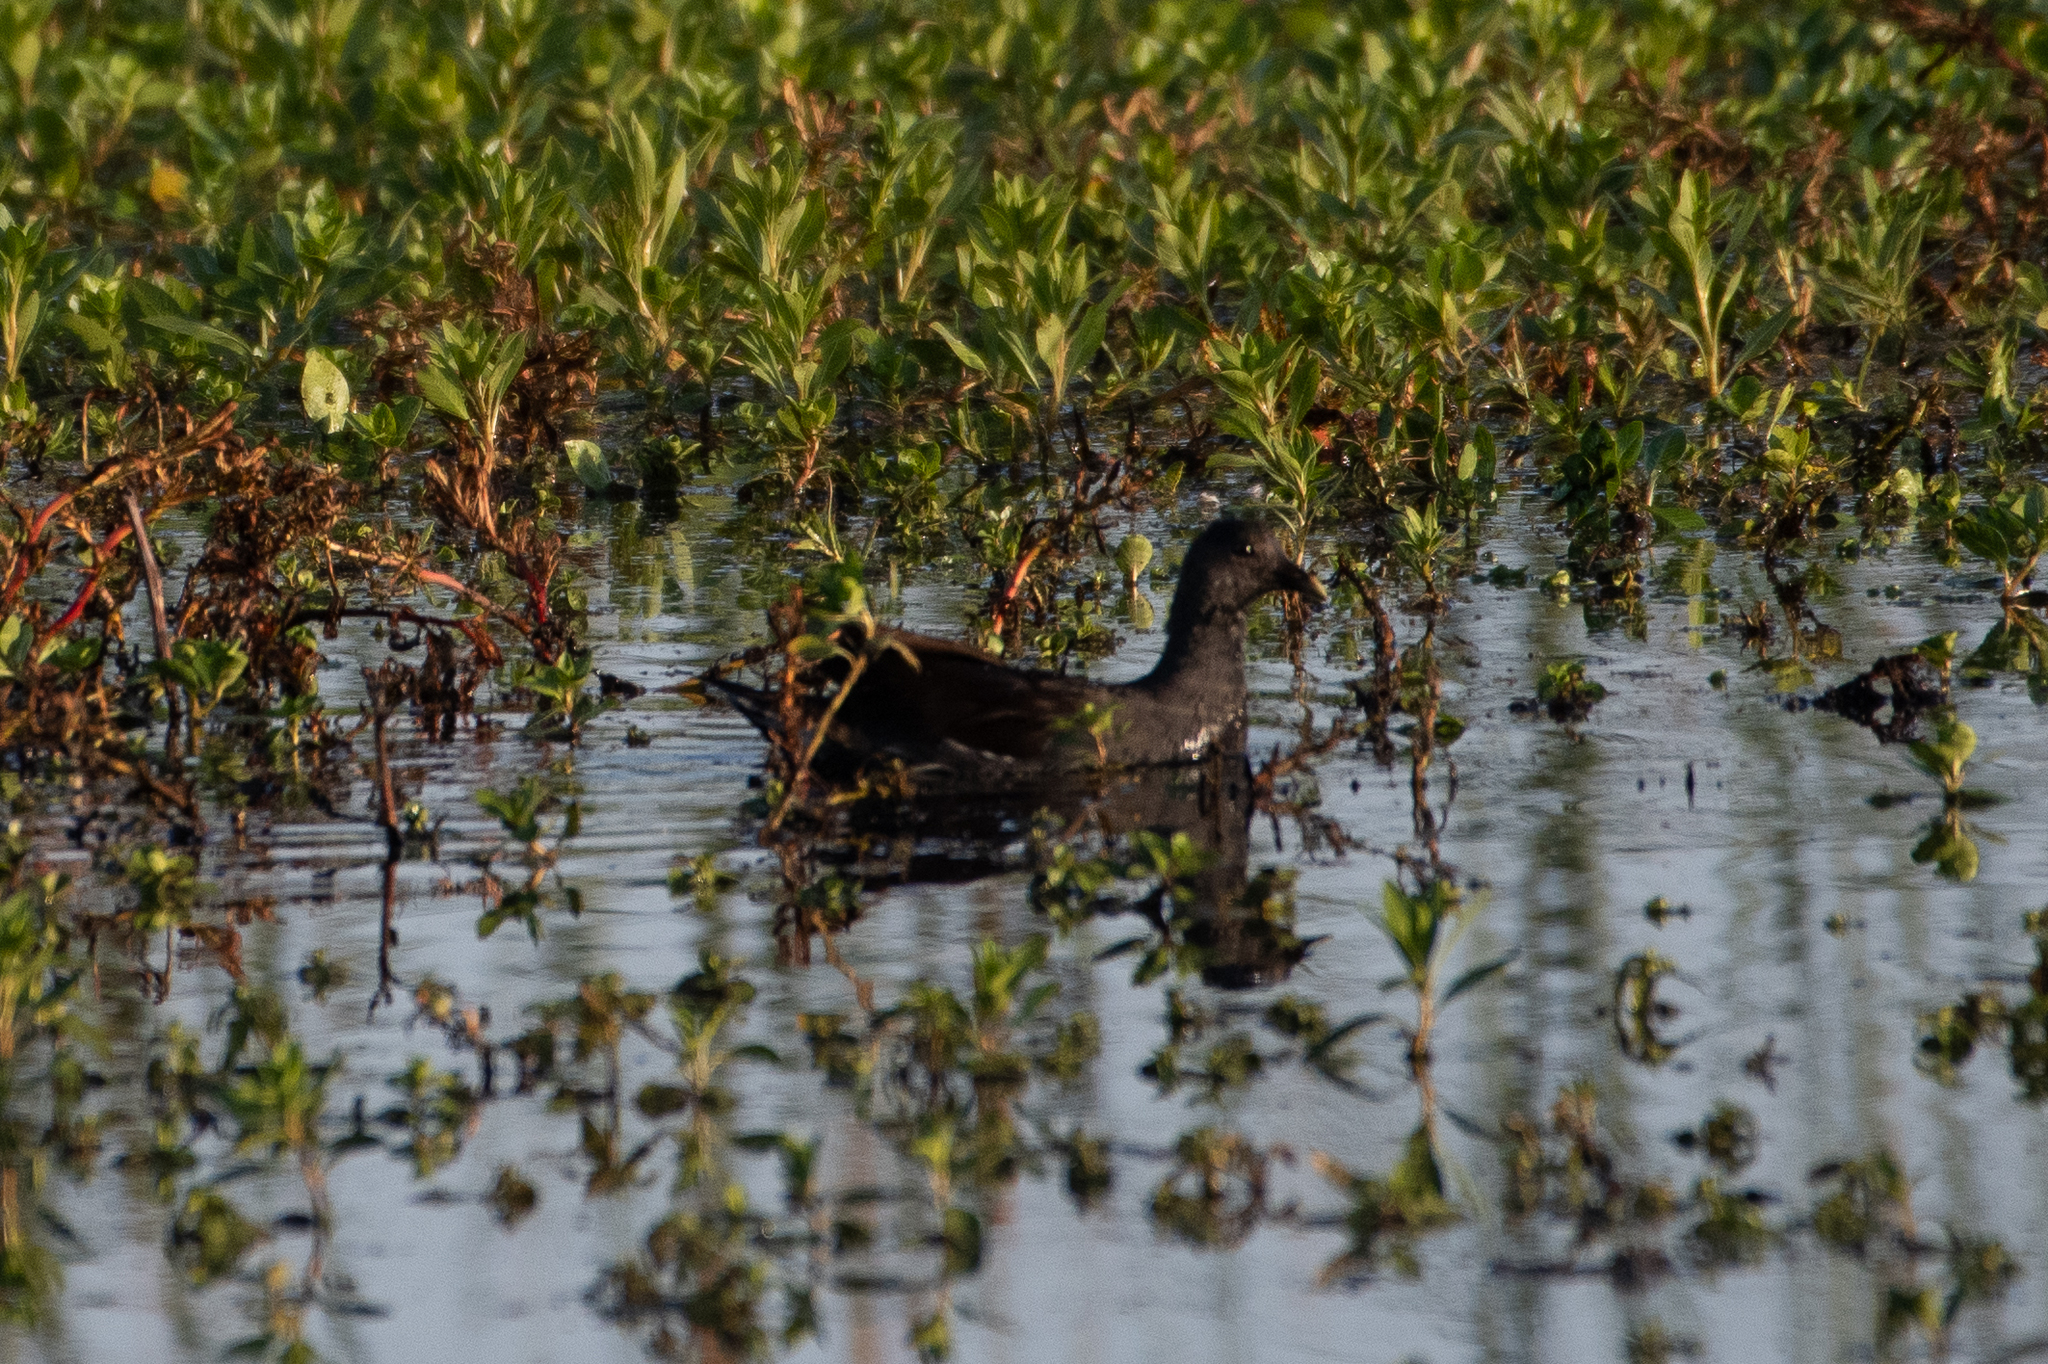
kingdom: Animalia
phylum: Chordata
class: Aves
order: Gruiformes
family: Rallidae
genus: Gallinula
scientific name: Gallinula chloropus
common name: Common moorhen
